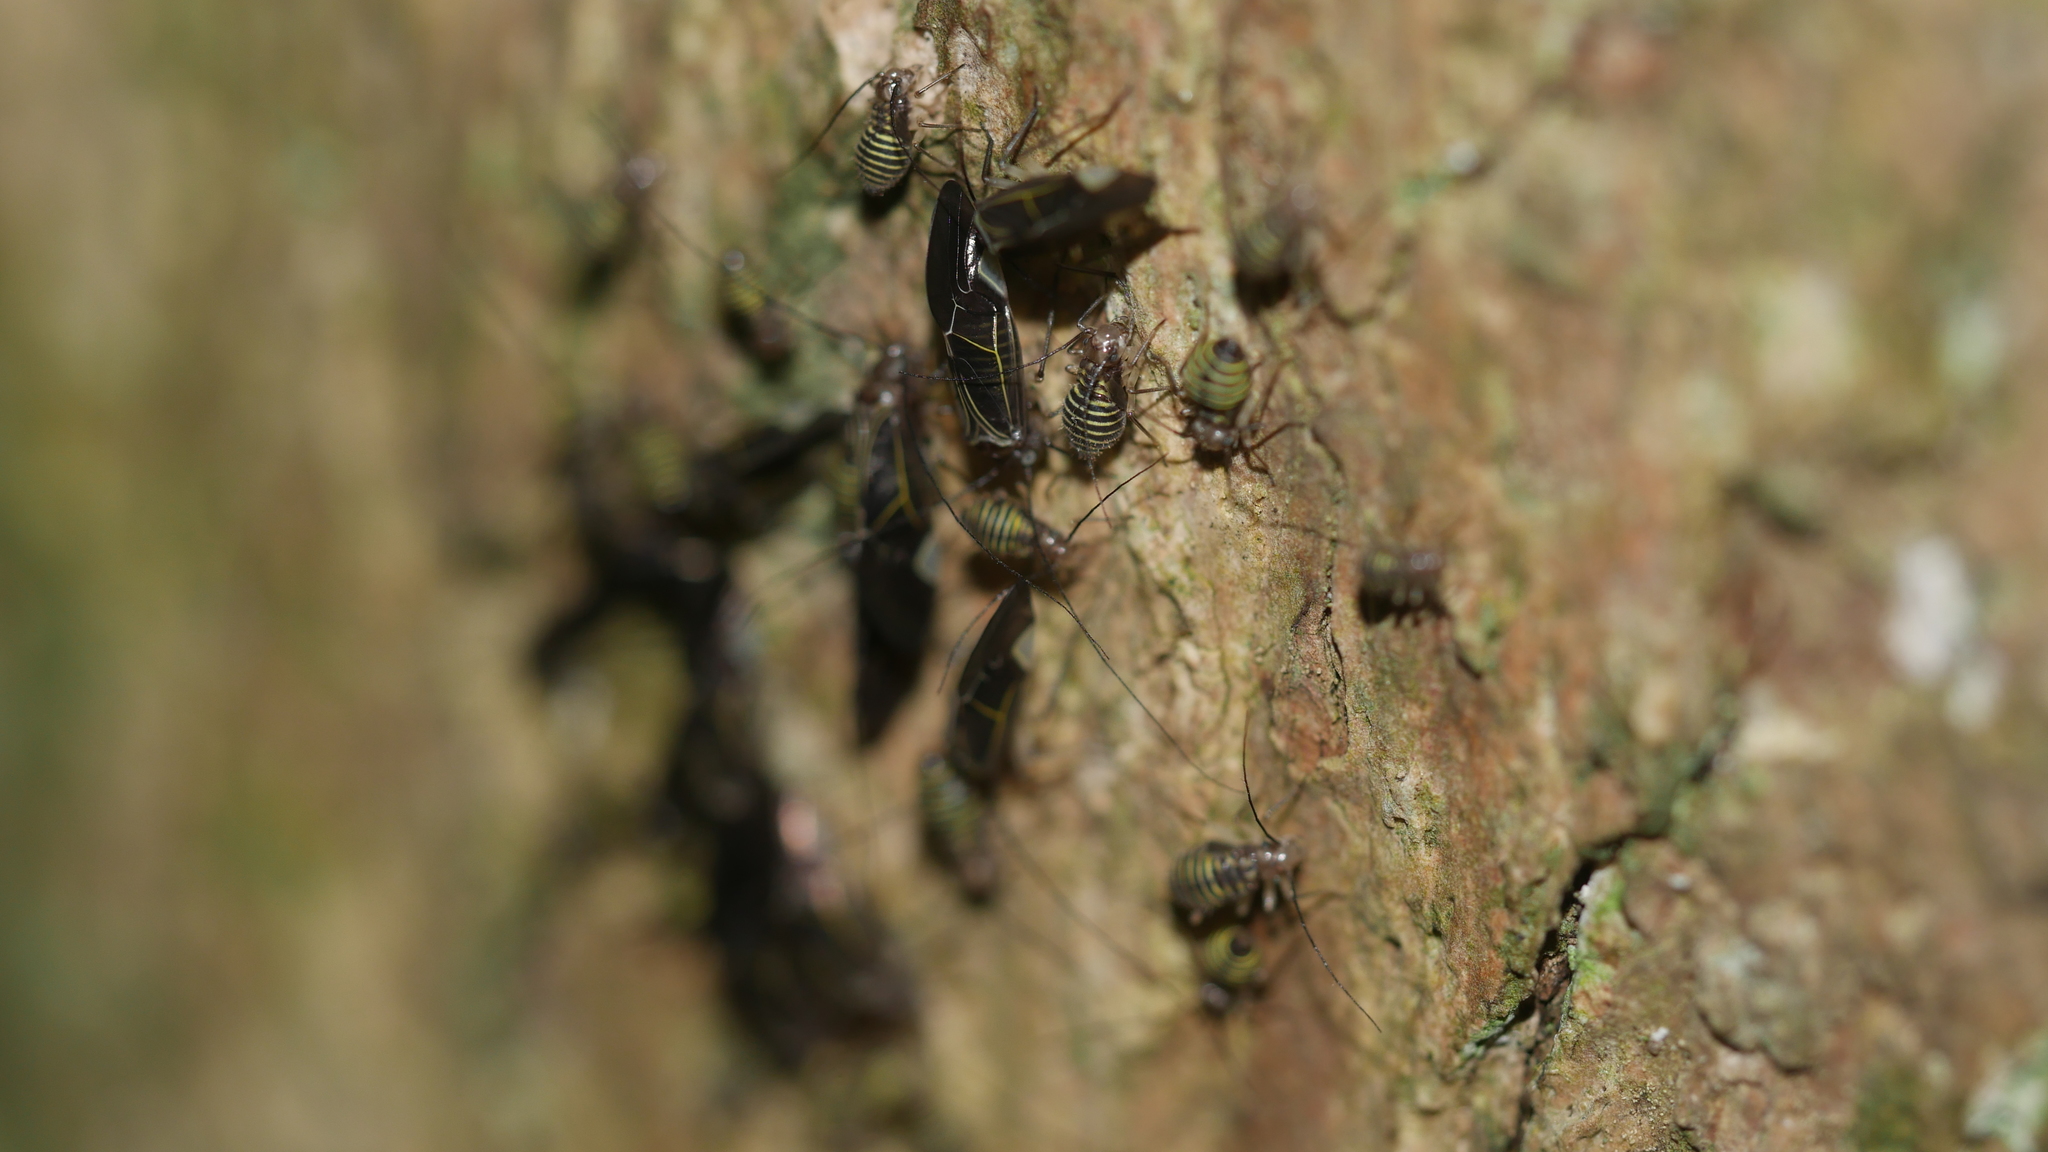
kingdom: Animalia
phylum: Arthropoda
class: Insecta
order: Psocodea
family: Psocidae
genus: Cerastipsocus
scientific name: Cerastipsocus venosus
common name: Tree cattle
